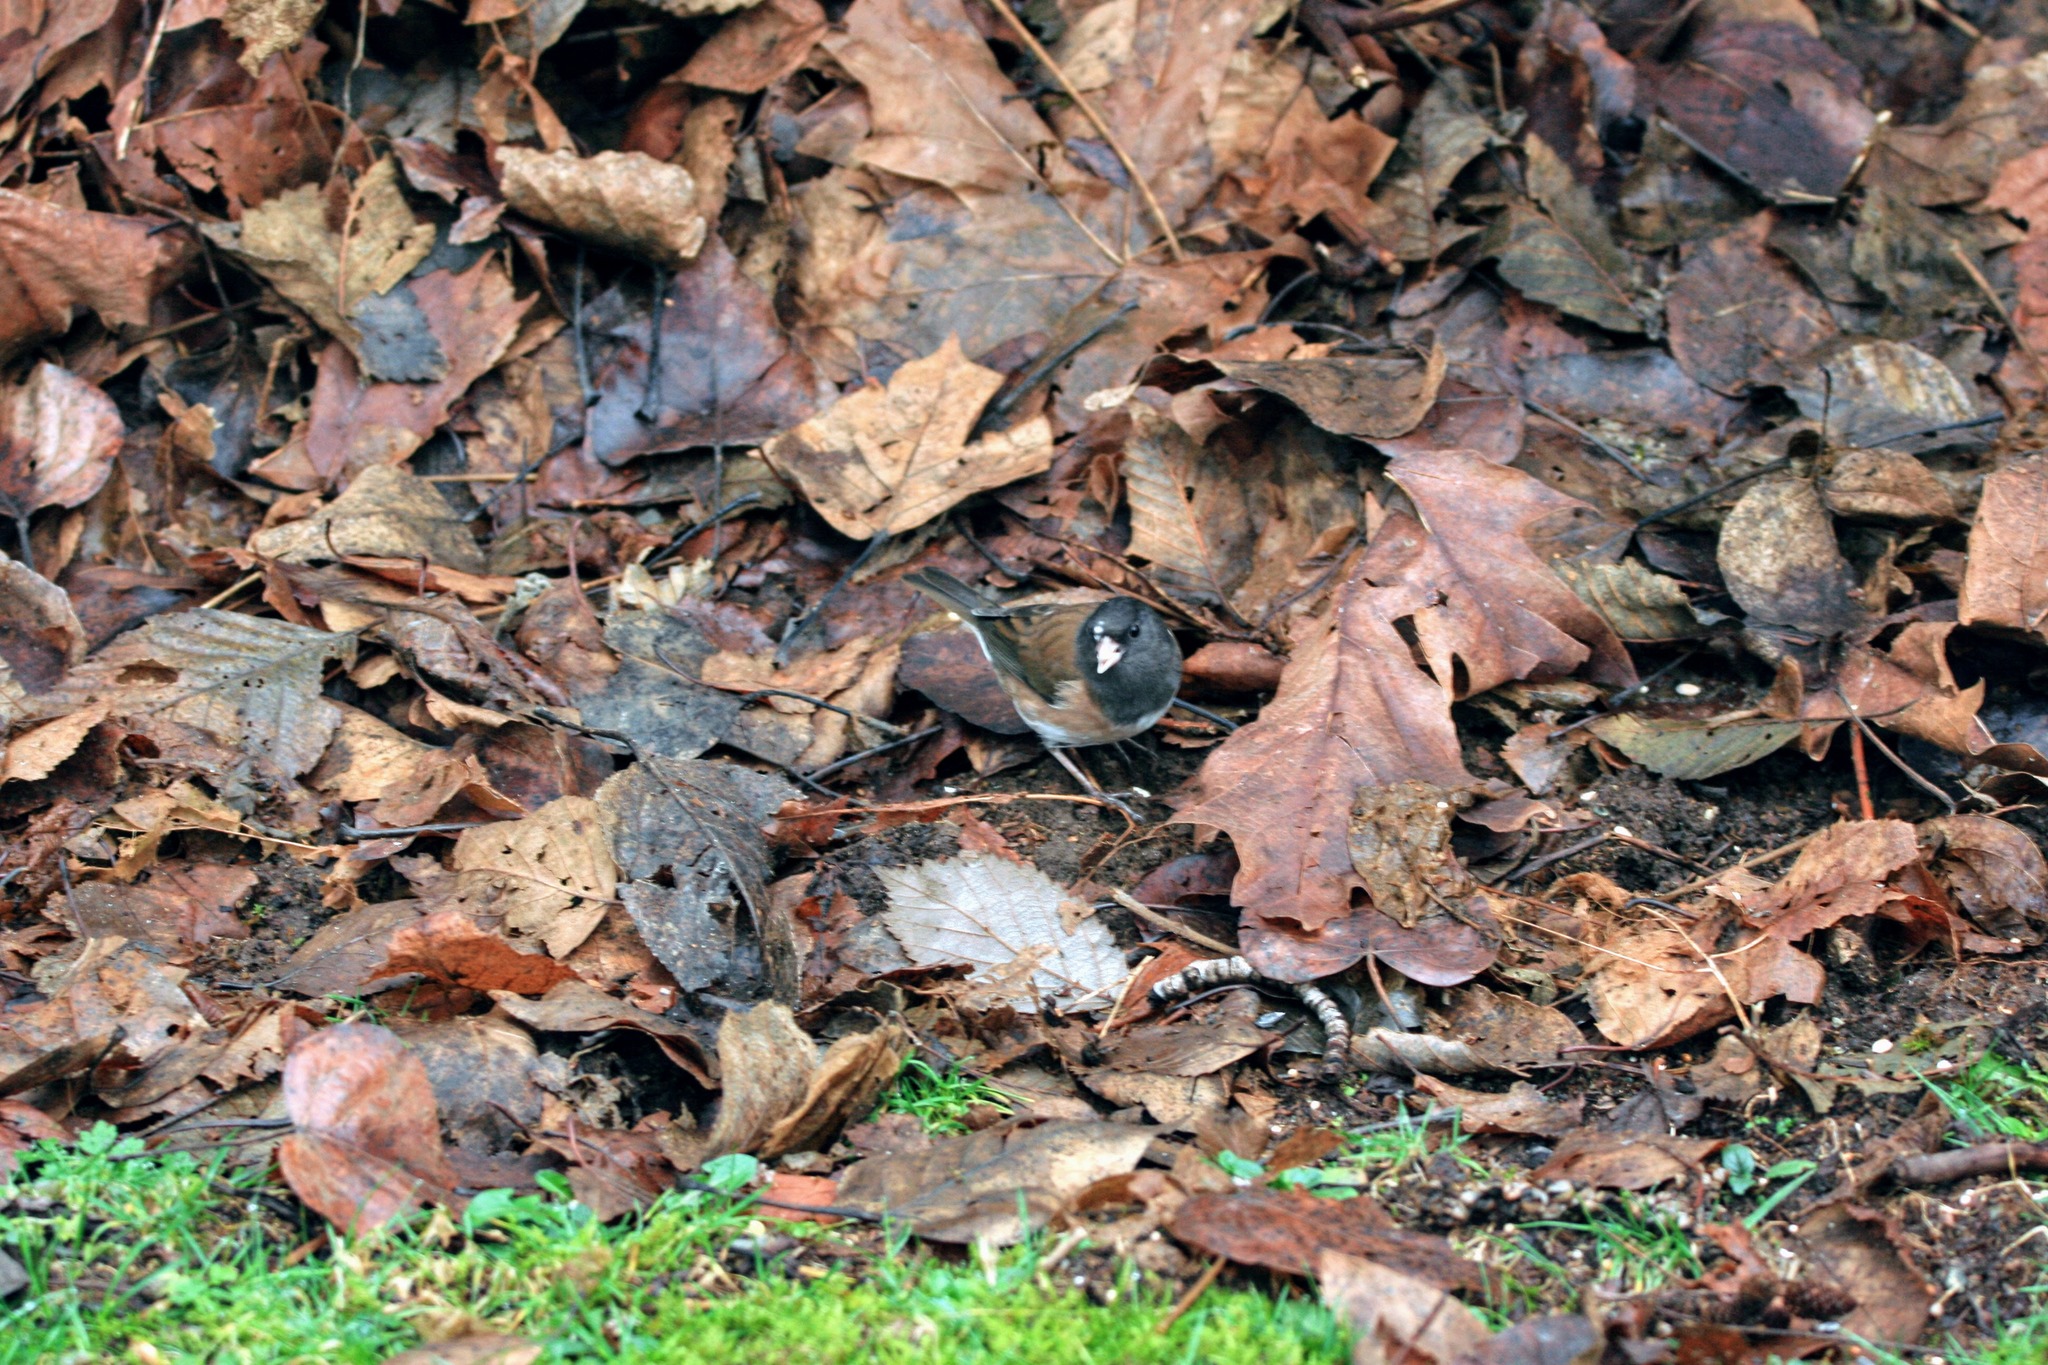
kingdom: Animalia
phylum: Chordata
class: Aves
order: Passeriformes
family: Passerellidae
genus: Junco
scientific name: Junco hyemalis
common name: Dark-eyed junco
